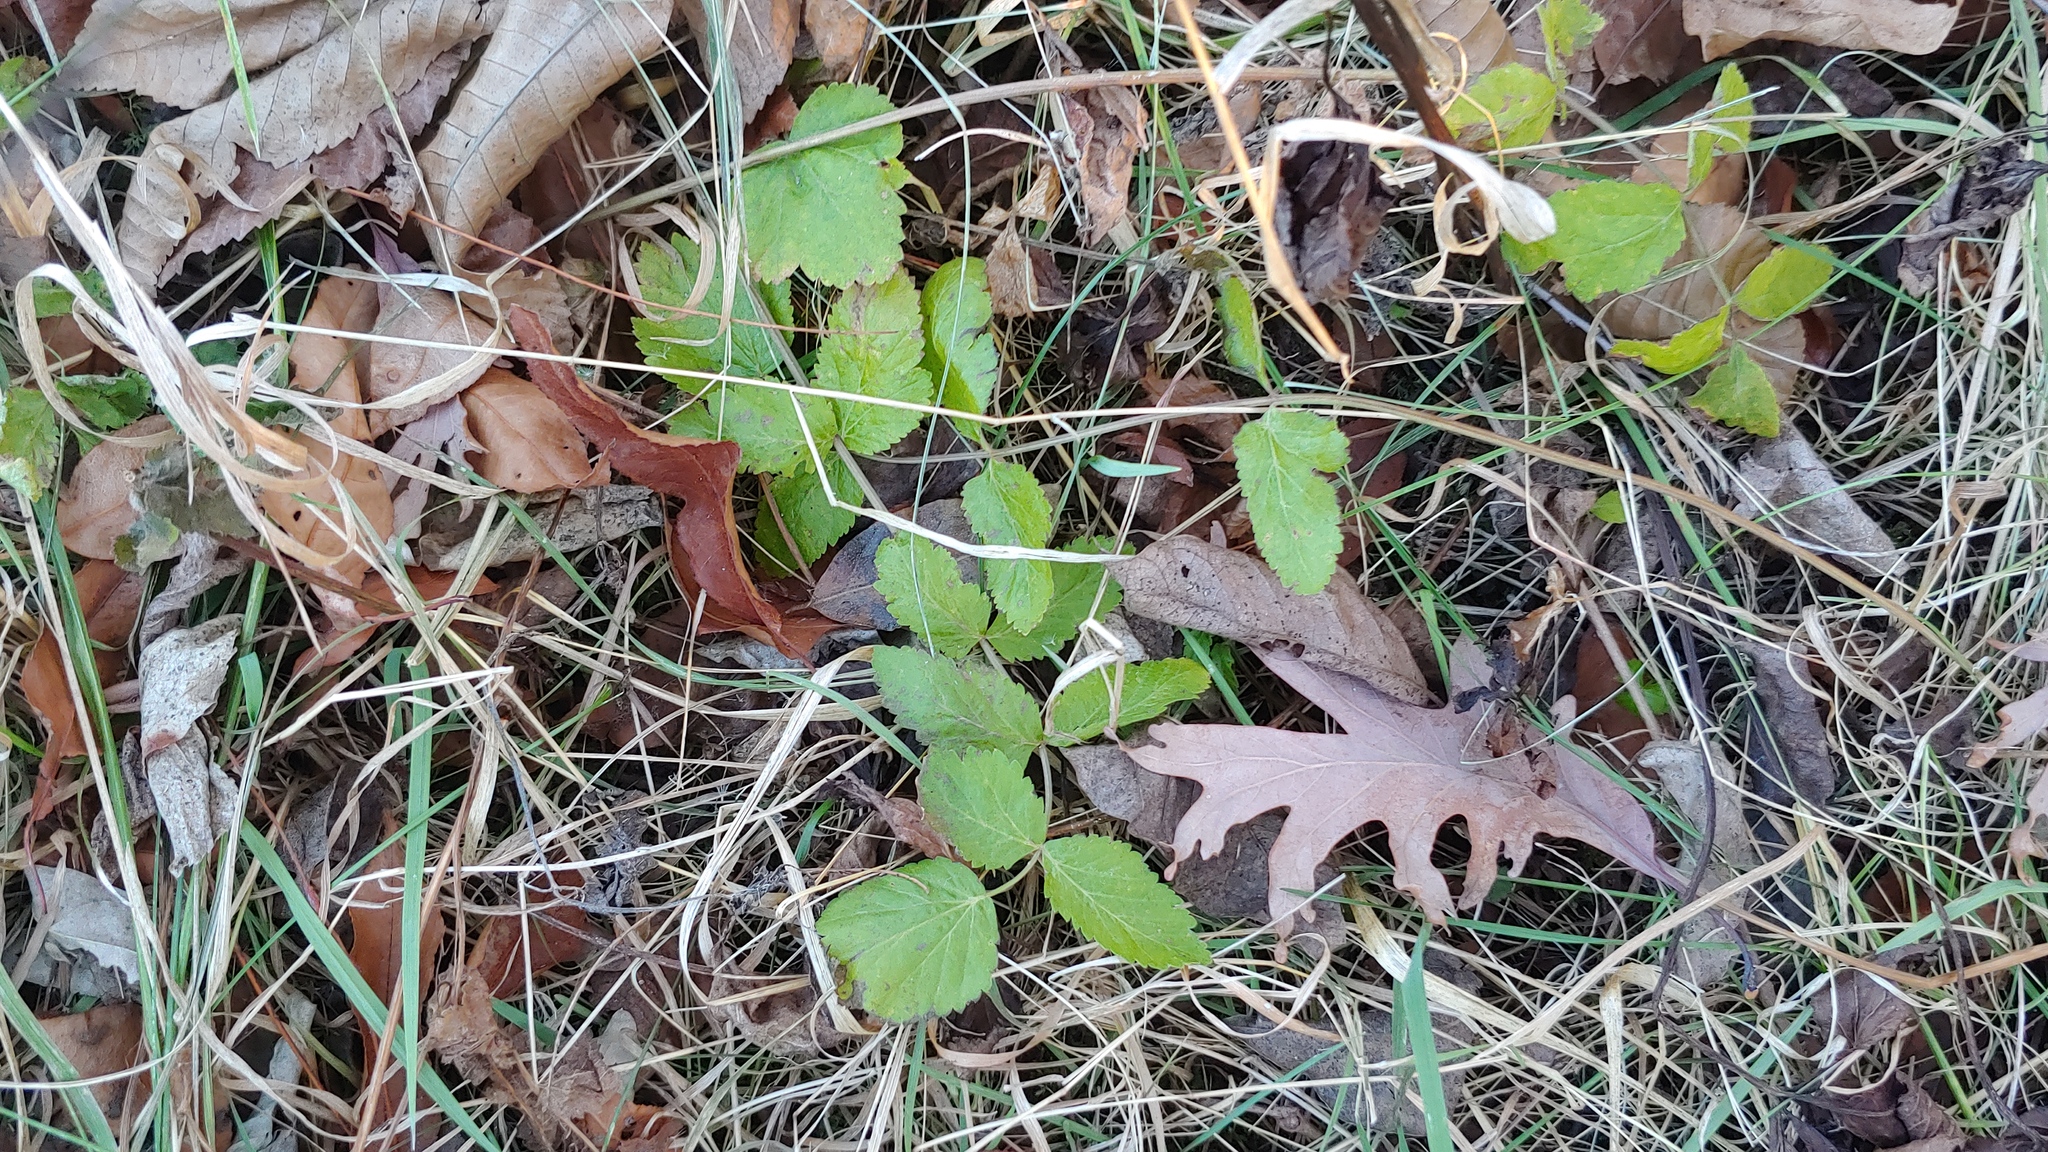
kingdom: Plantae
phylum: Tracheophyta
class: Magnoliopsida
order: Apiales
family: Apiaceae
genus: Pastinaca
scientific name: Pastinaca sativa
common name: Wild parsnip
